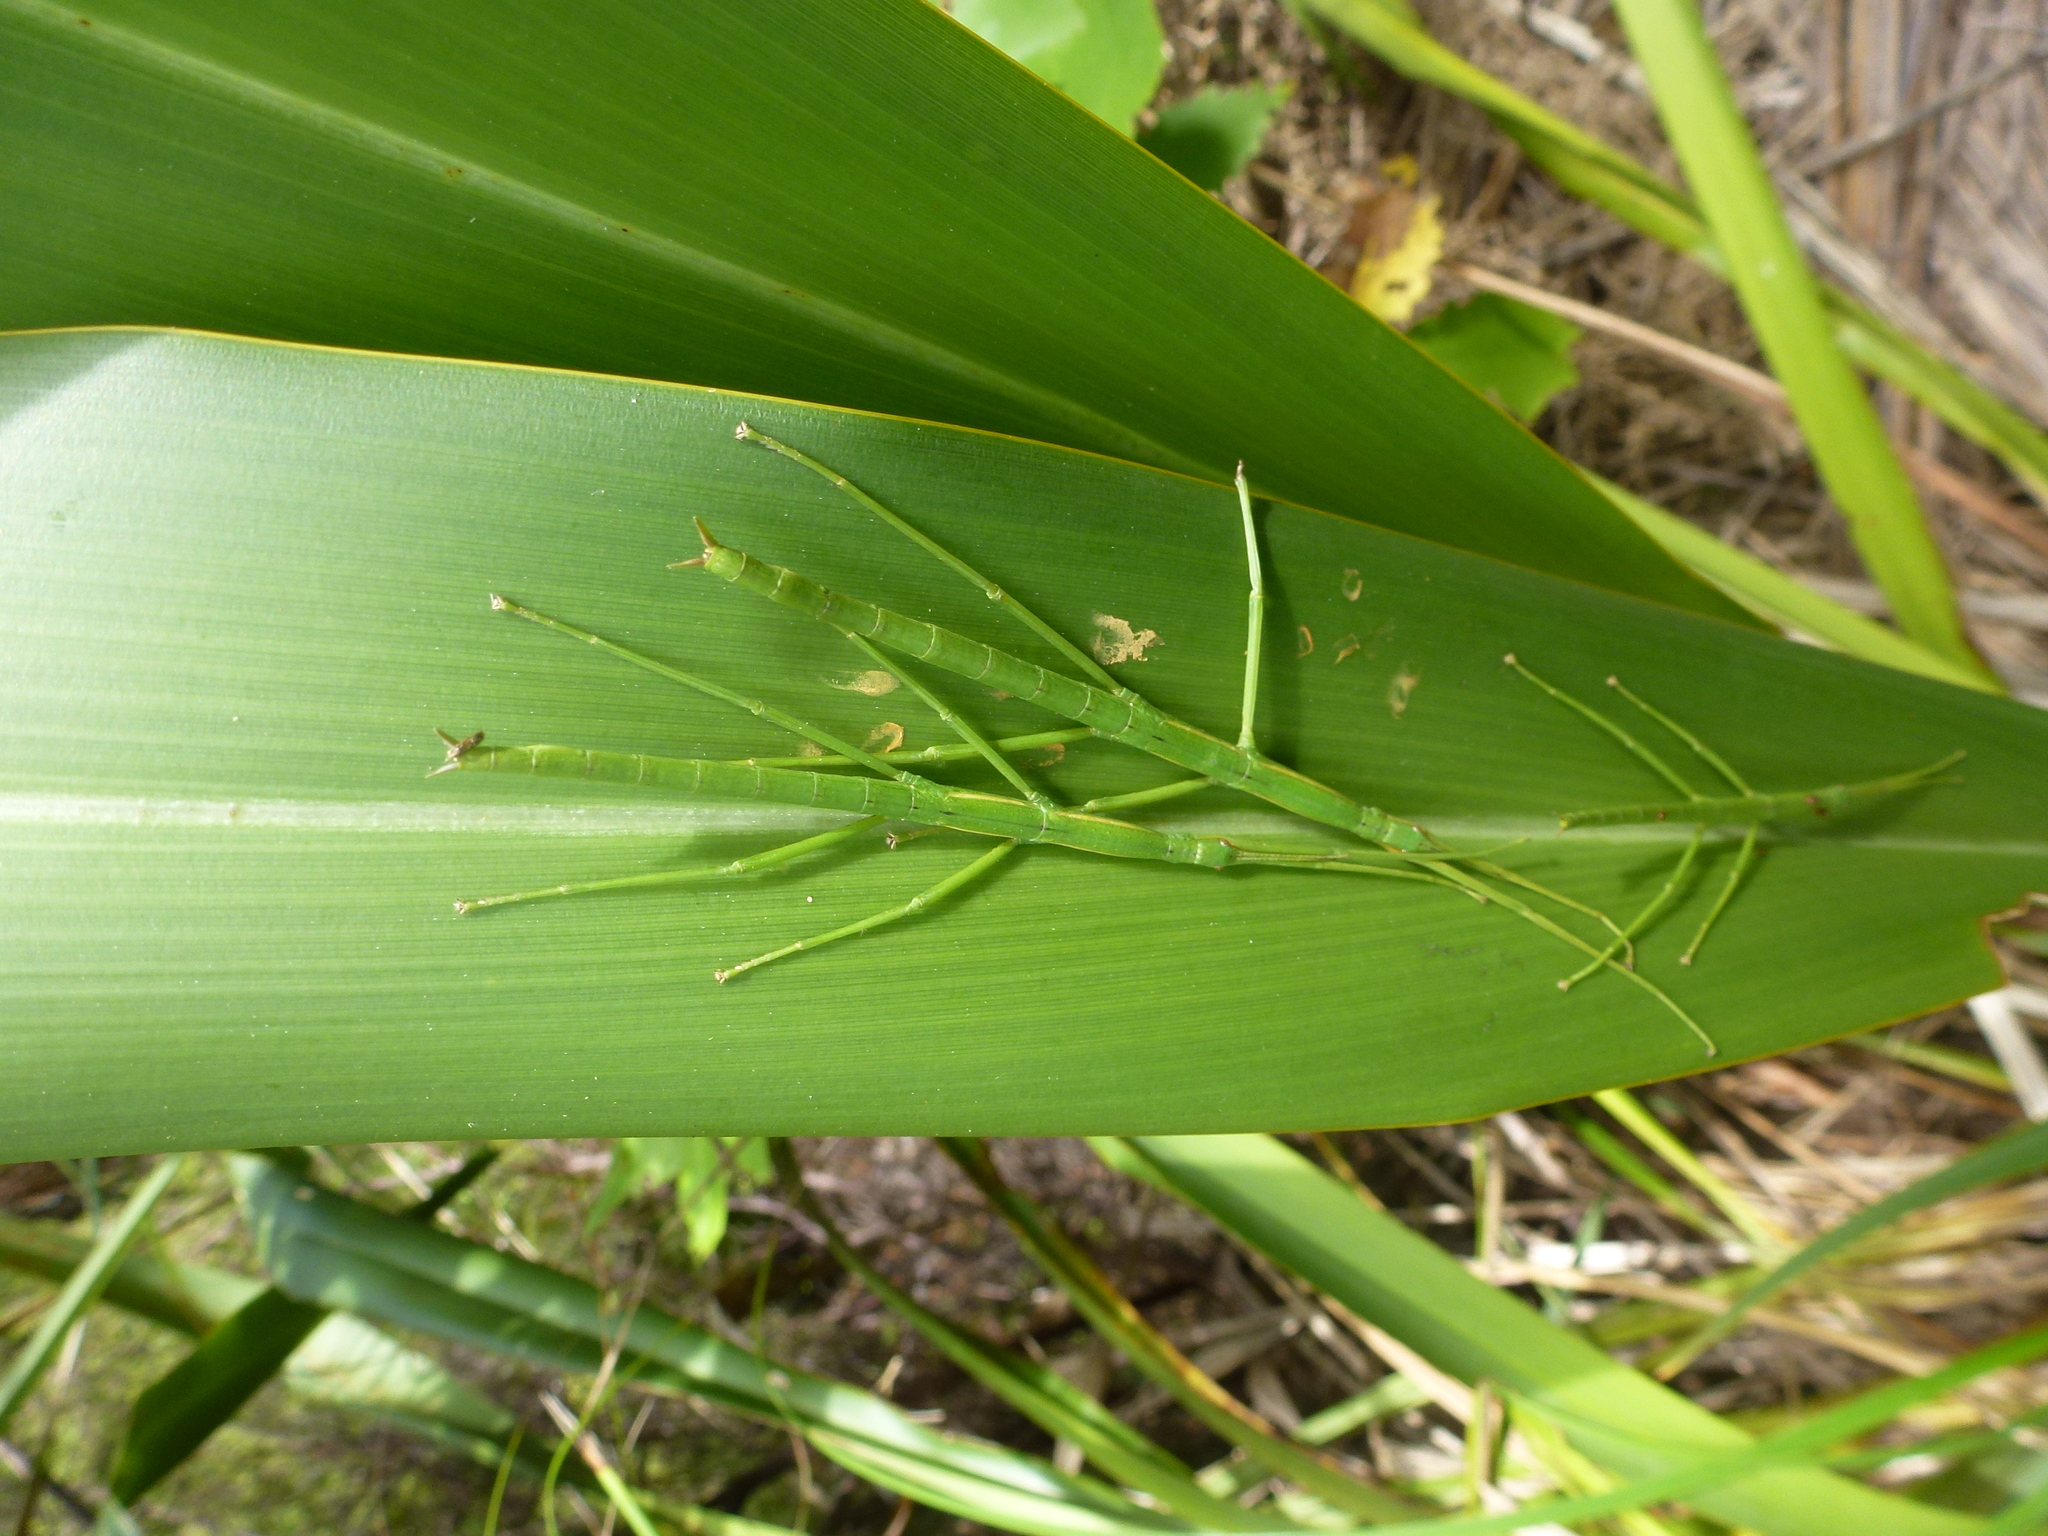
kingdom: Animalia
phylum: Arthropoda
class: Insecta
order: Phasmida
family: Phasmatidae
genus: Clitarchus
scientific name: Clitarchus hookeri
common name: Smooth stick insect
